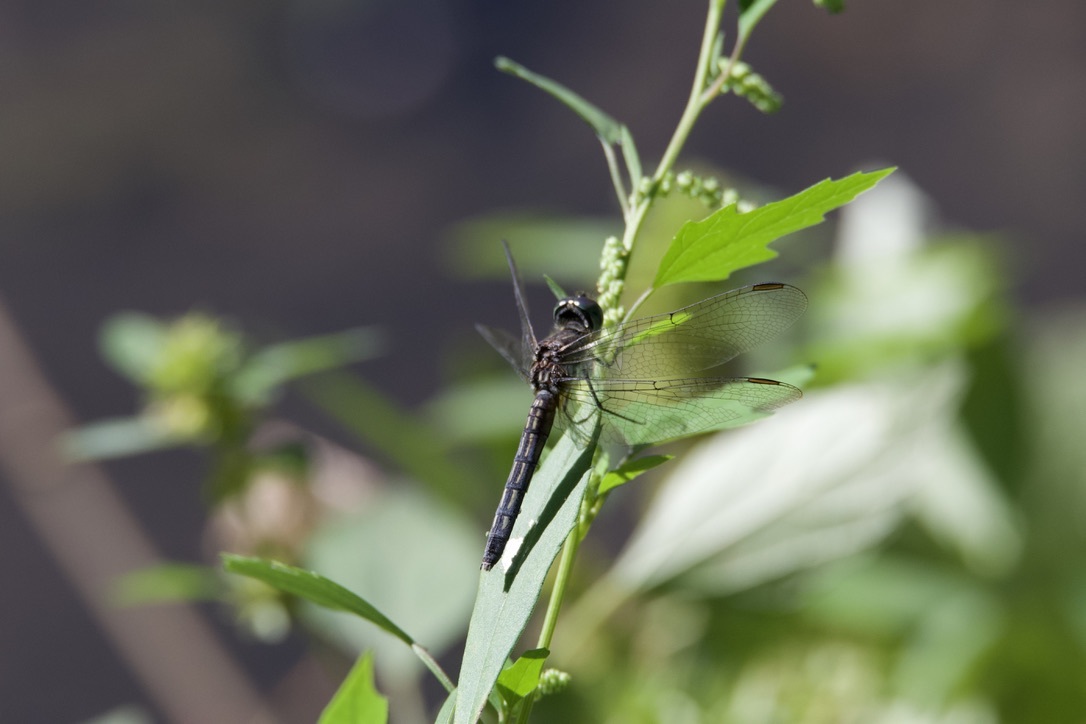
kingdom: Animalia
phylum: Arthropoda
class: Insecta
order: Odonata
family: Libellulidae
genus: Pachydiplax
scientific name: Pachydiplax longipennis
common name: Blue dasher
